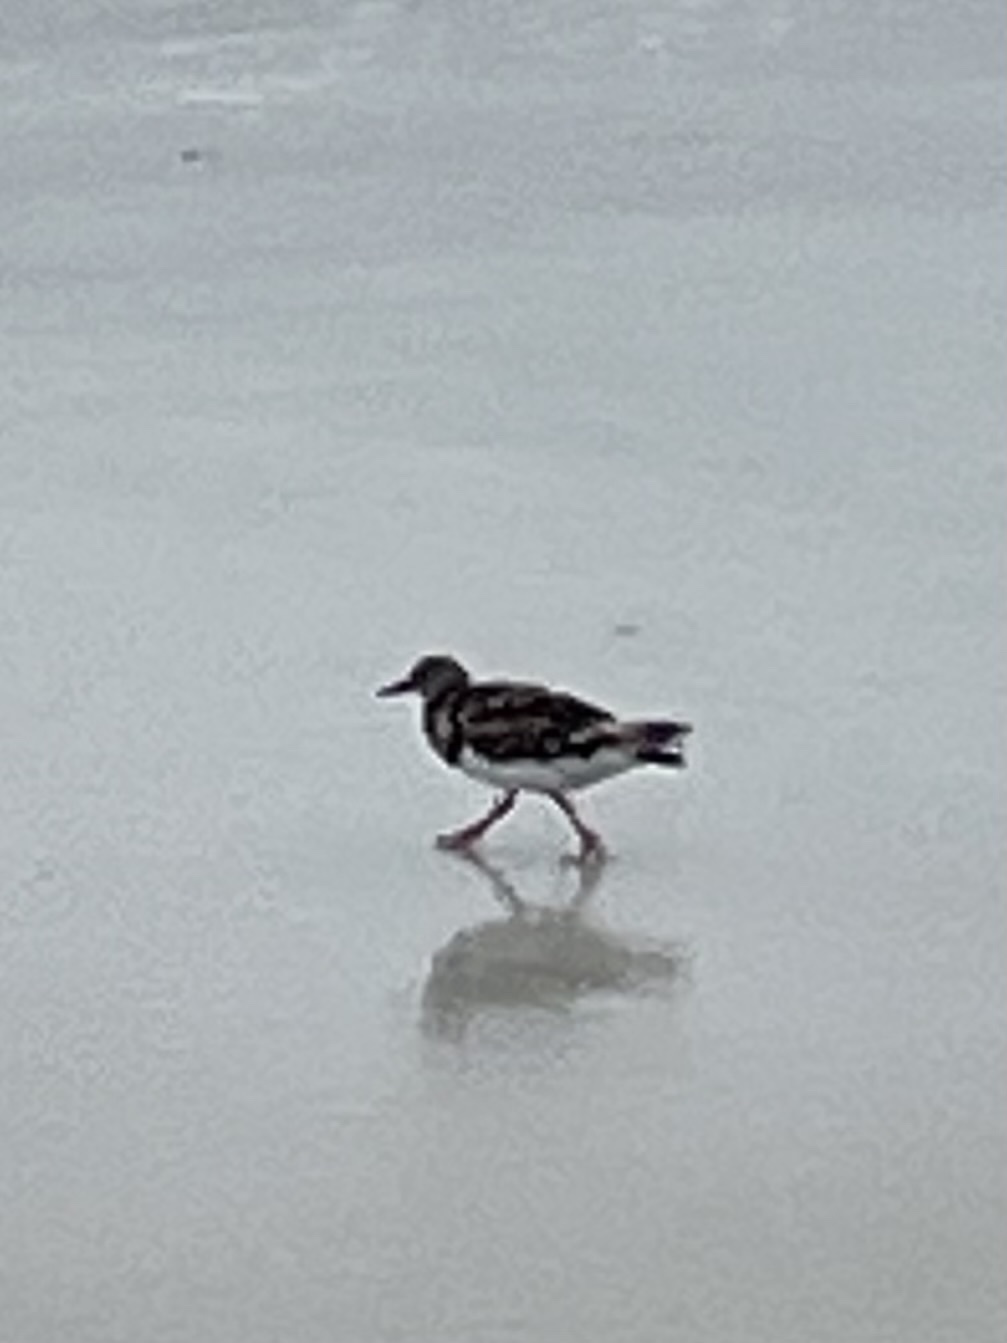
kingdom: Animalia
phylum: Chordata
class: Aves
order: Charadriiformes
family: Scolopacidae
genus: Arenaria
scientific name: Arenaria interpres
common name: Ruddy turnstone
